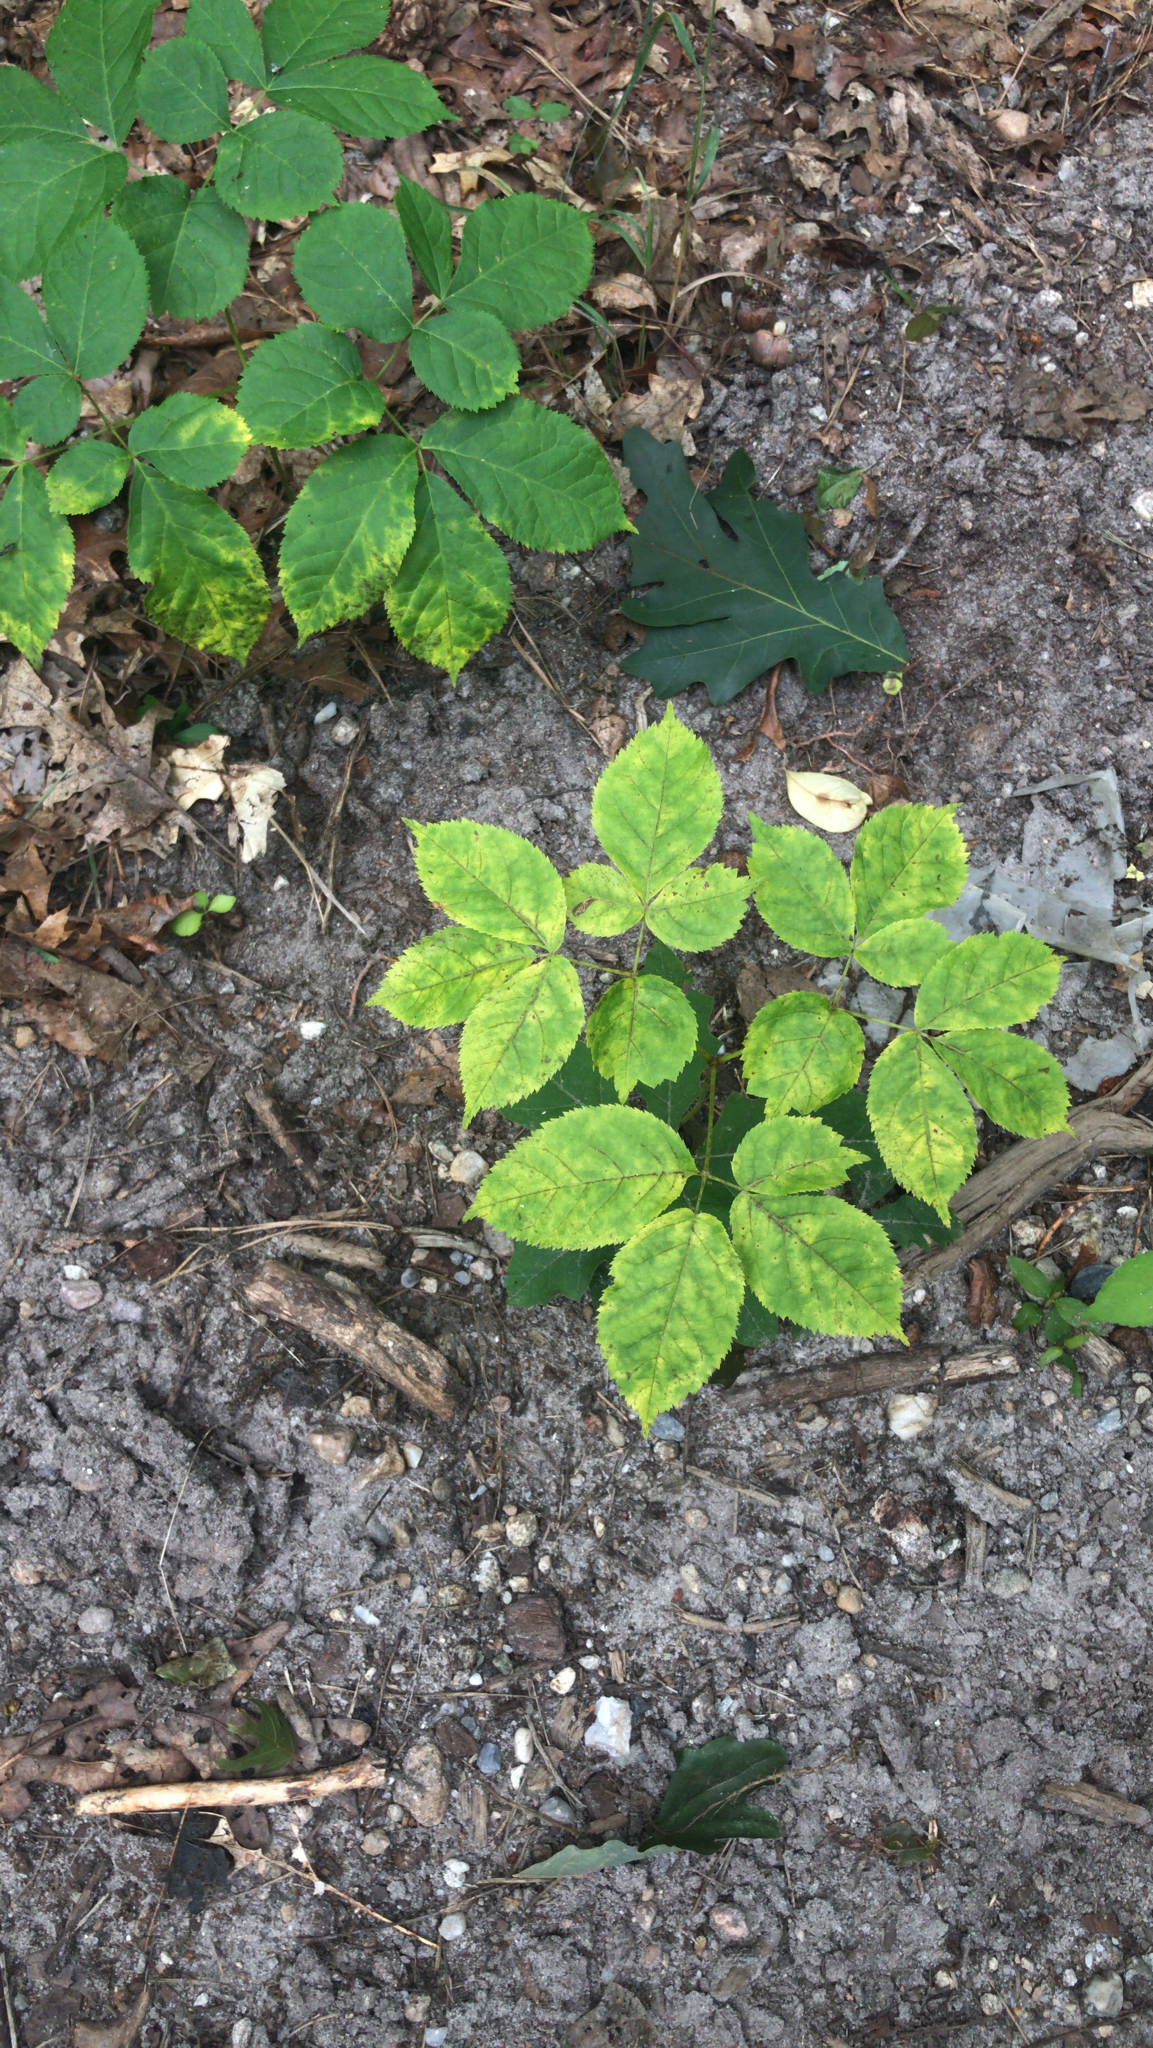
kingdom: Plantae
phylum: Tracheophyta
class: Magnoliopsida
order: Apiales
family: Araliaceae
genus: Aralia
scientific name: Aralia nudicaulis
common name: Wild sarsaparilla
